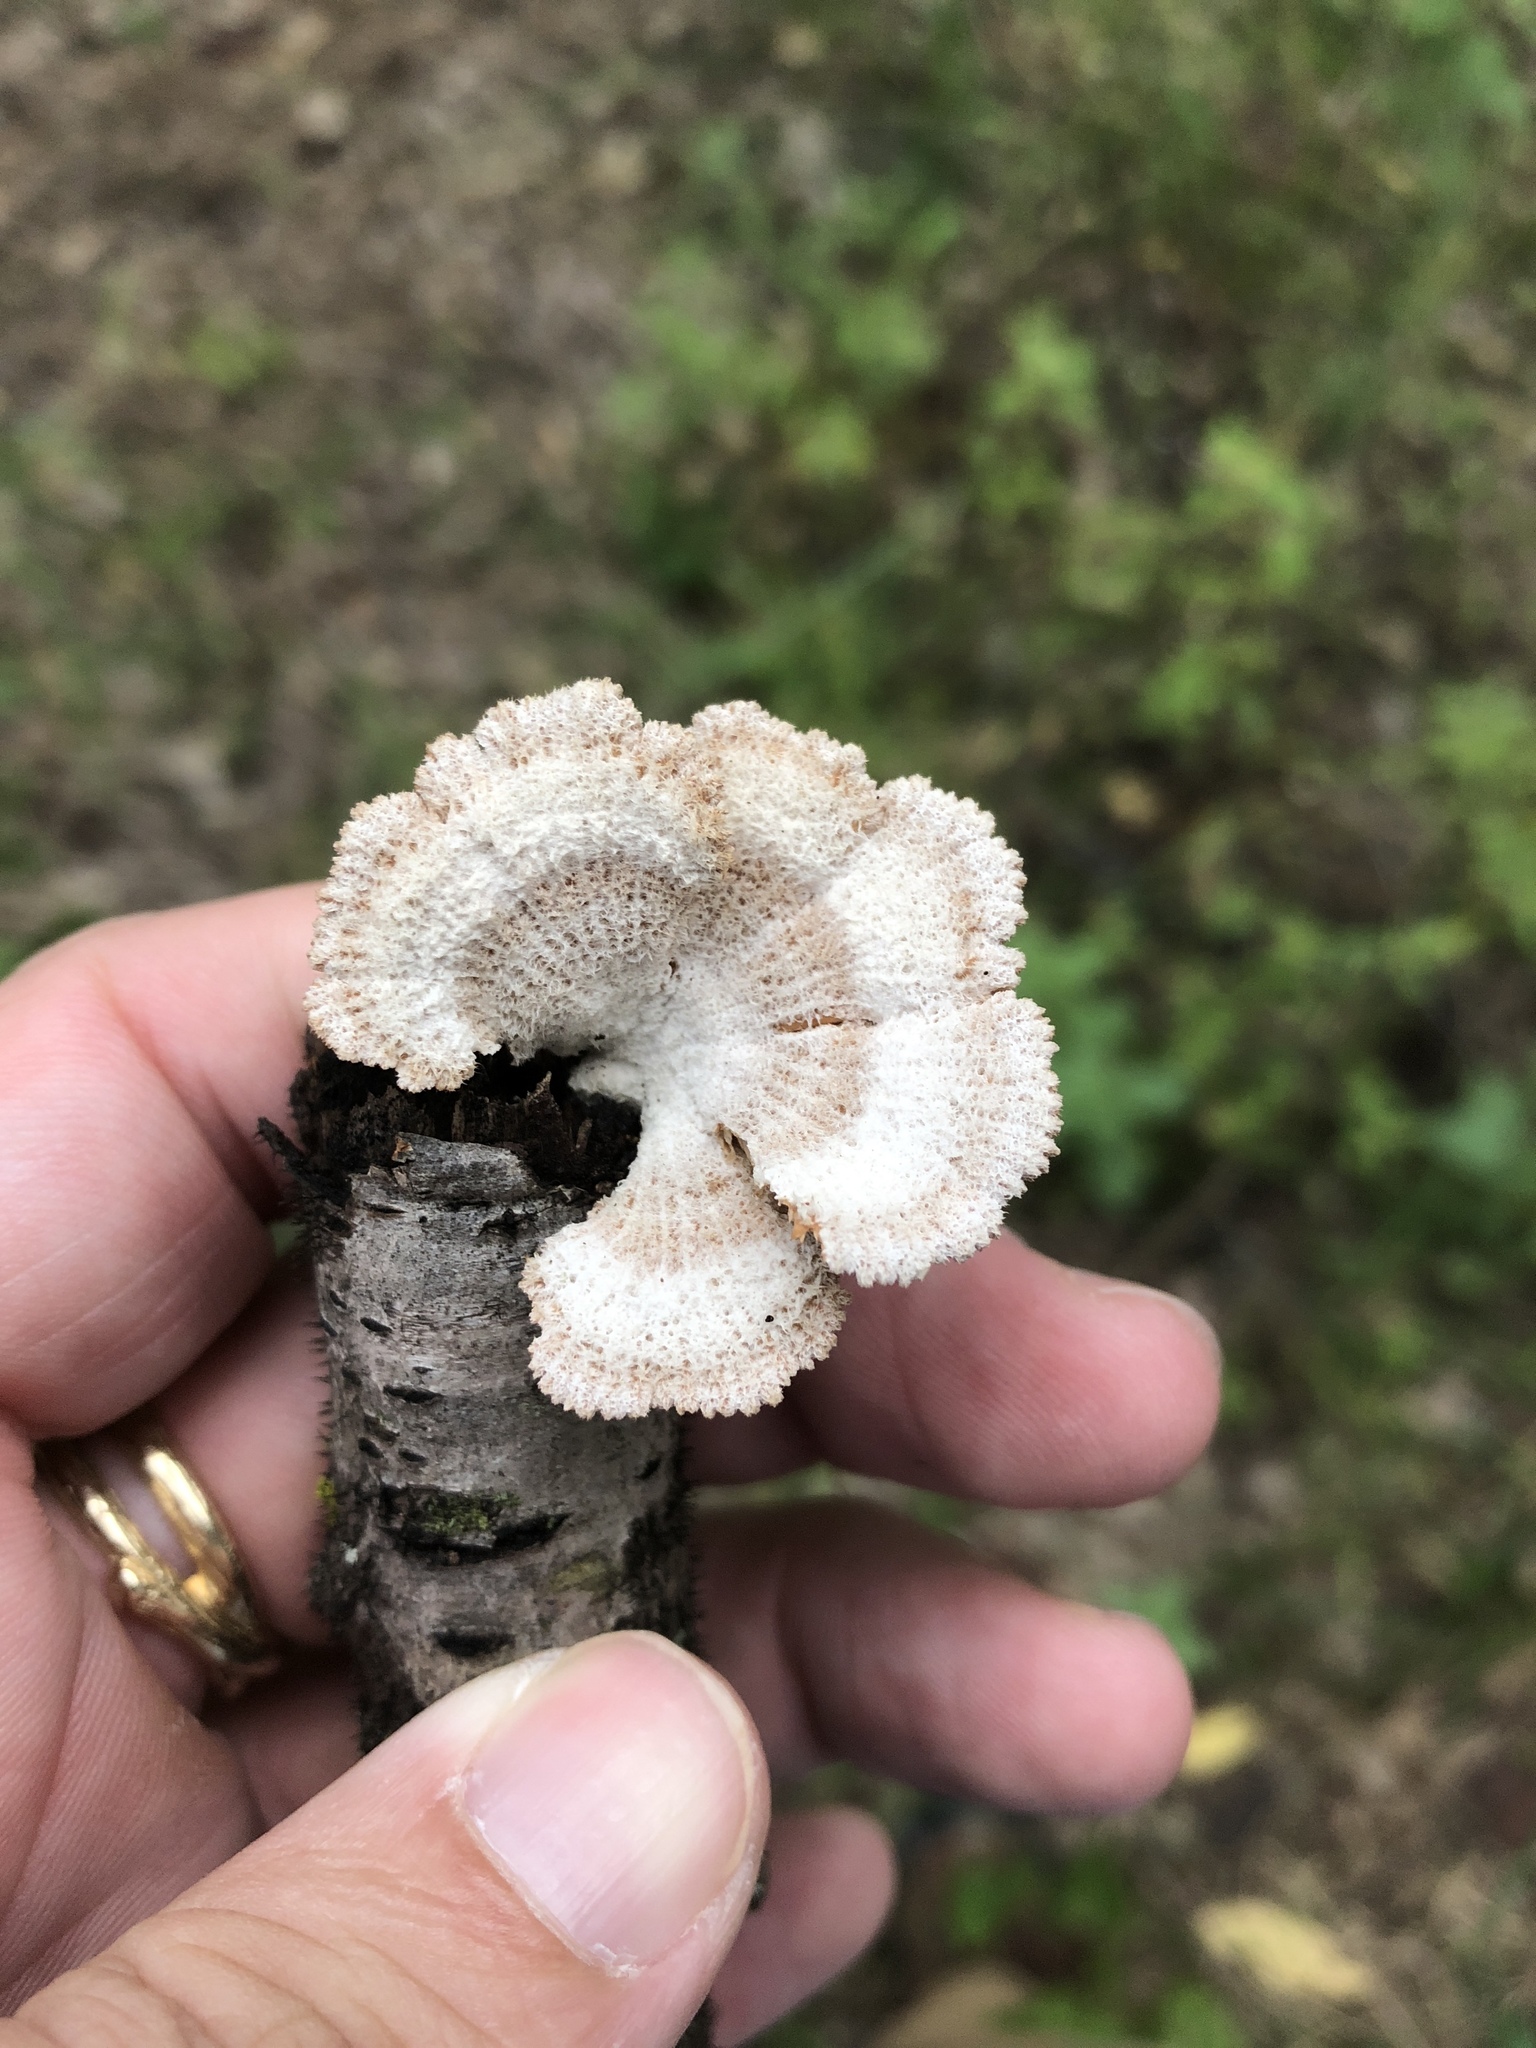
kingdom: Fungi
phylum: Basidiomycota
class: Agaricomycetes
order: Agaricales
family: Schizophyllaceae
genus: Schizophyllum
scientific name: Schizophyllum commune
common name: Common porecrust
